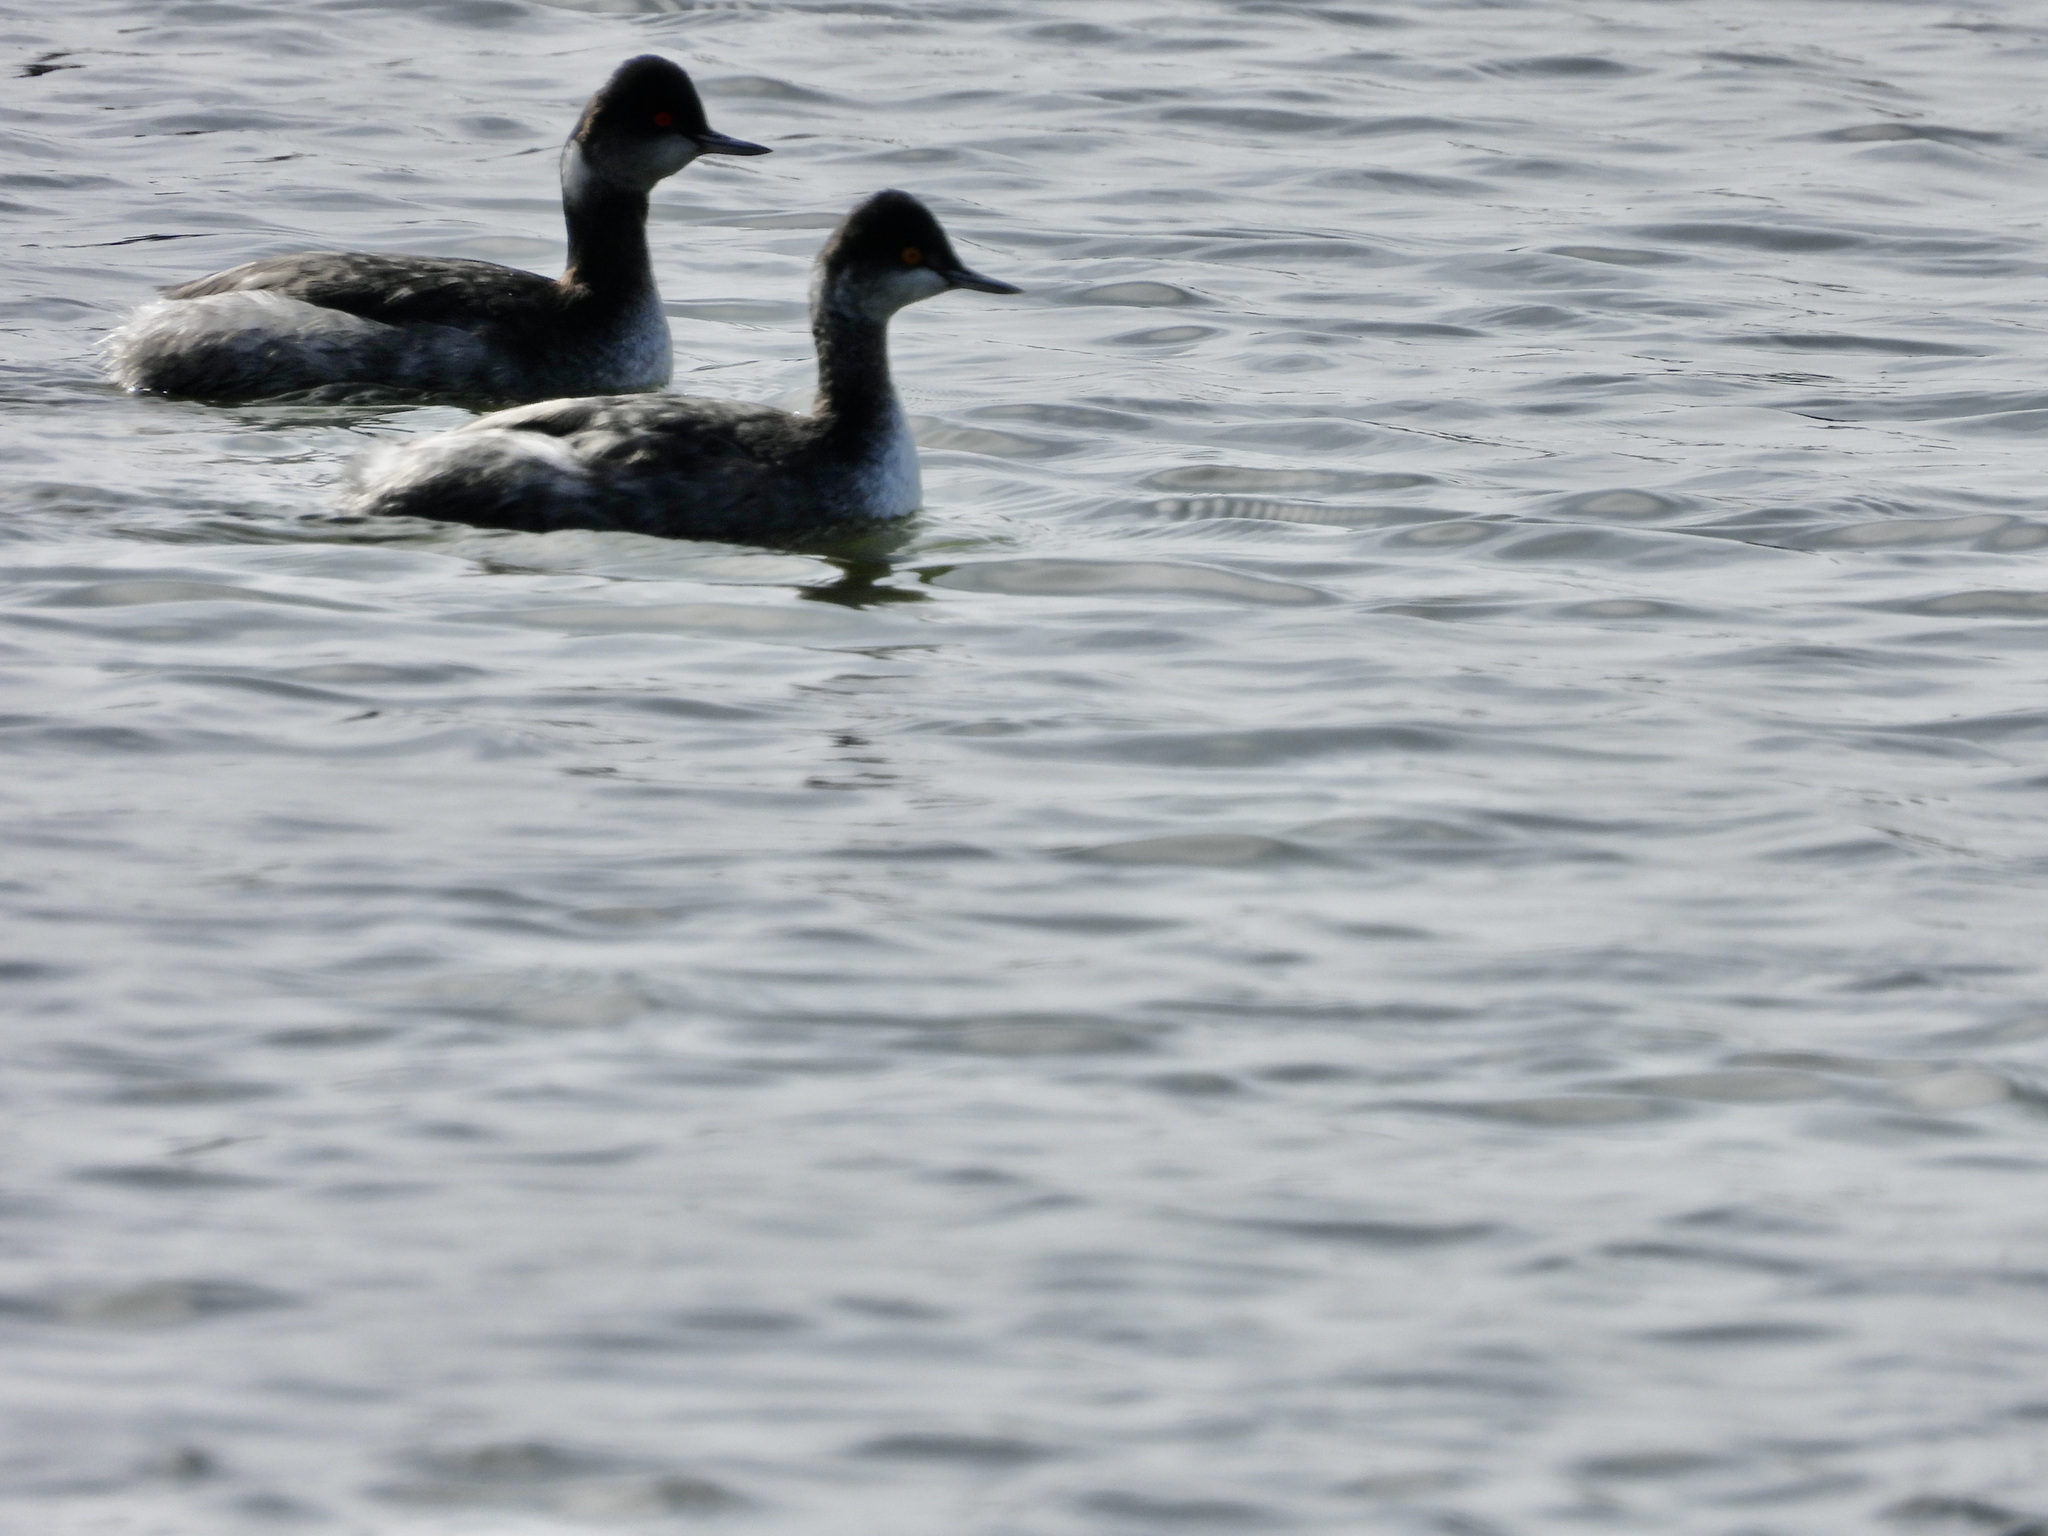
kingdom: Animalia
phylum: Chordata
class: Aves
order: Podicipediformes
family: Podicipedidae
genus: Podiceps
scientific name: Podiceps nigricollis
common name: Black-necked grebe
